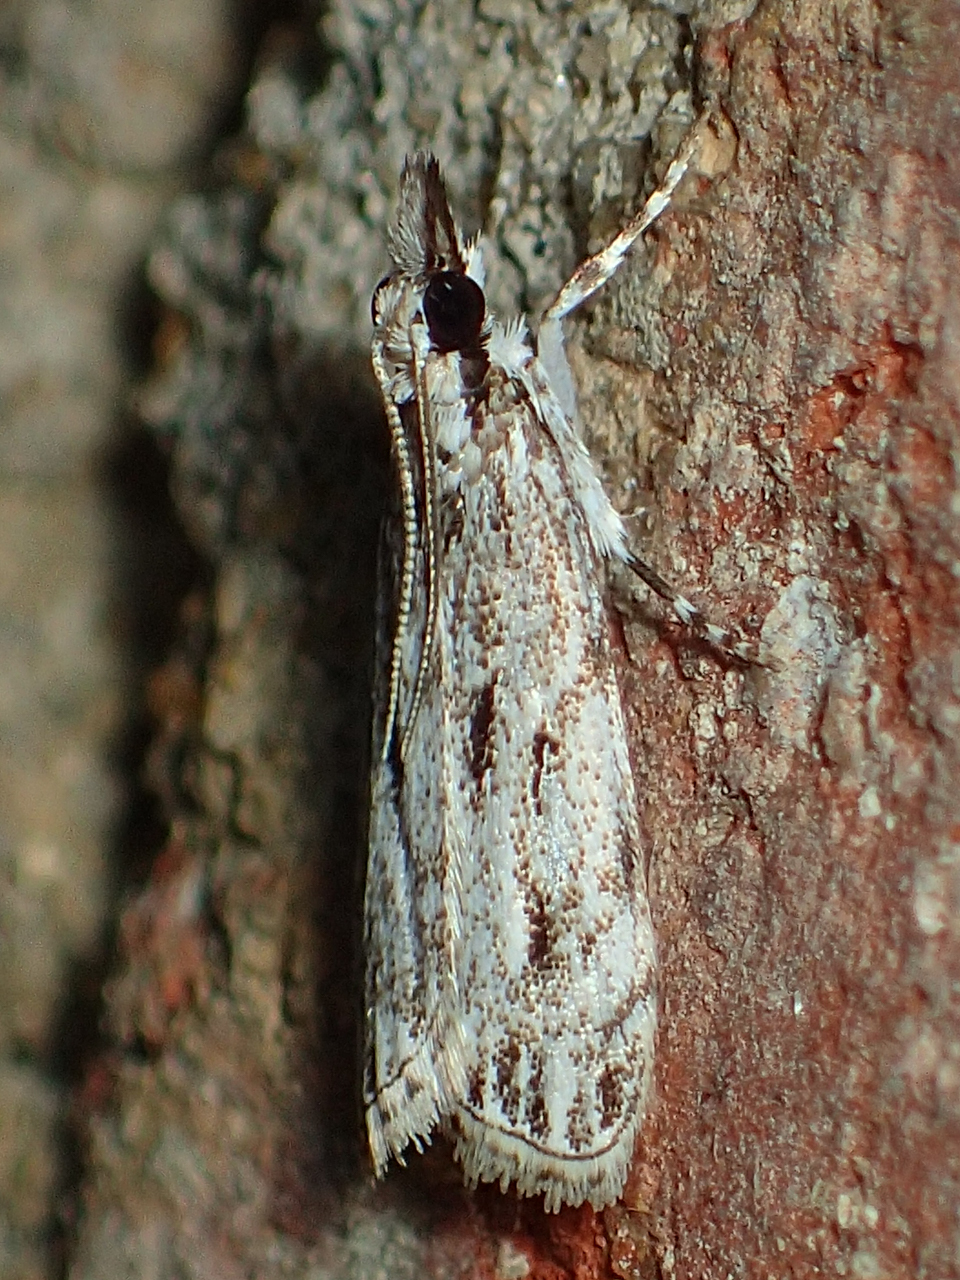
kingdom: Animalia
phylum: Arthropoda
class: Insecta
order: Lepidoptera
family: Crambidae
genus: Eudonia
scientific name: Eudonia strigalis
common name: Striped eudonia moth
